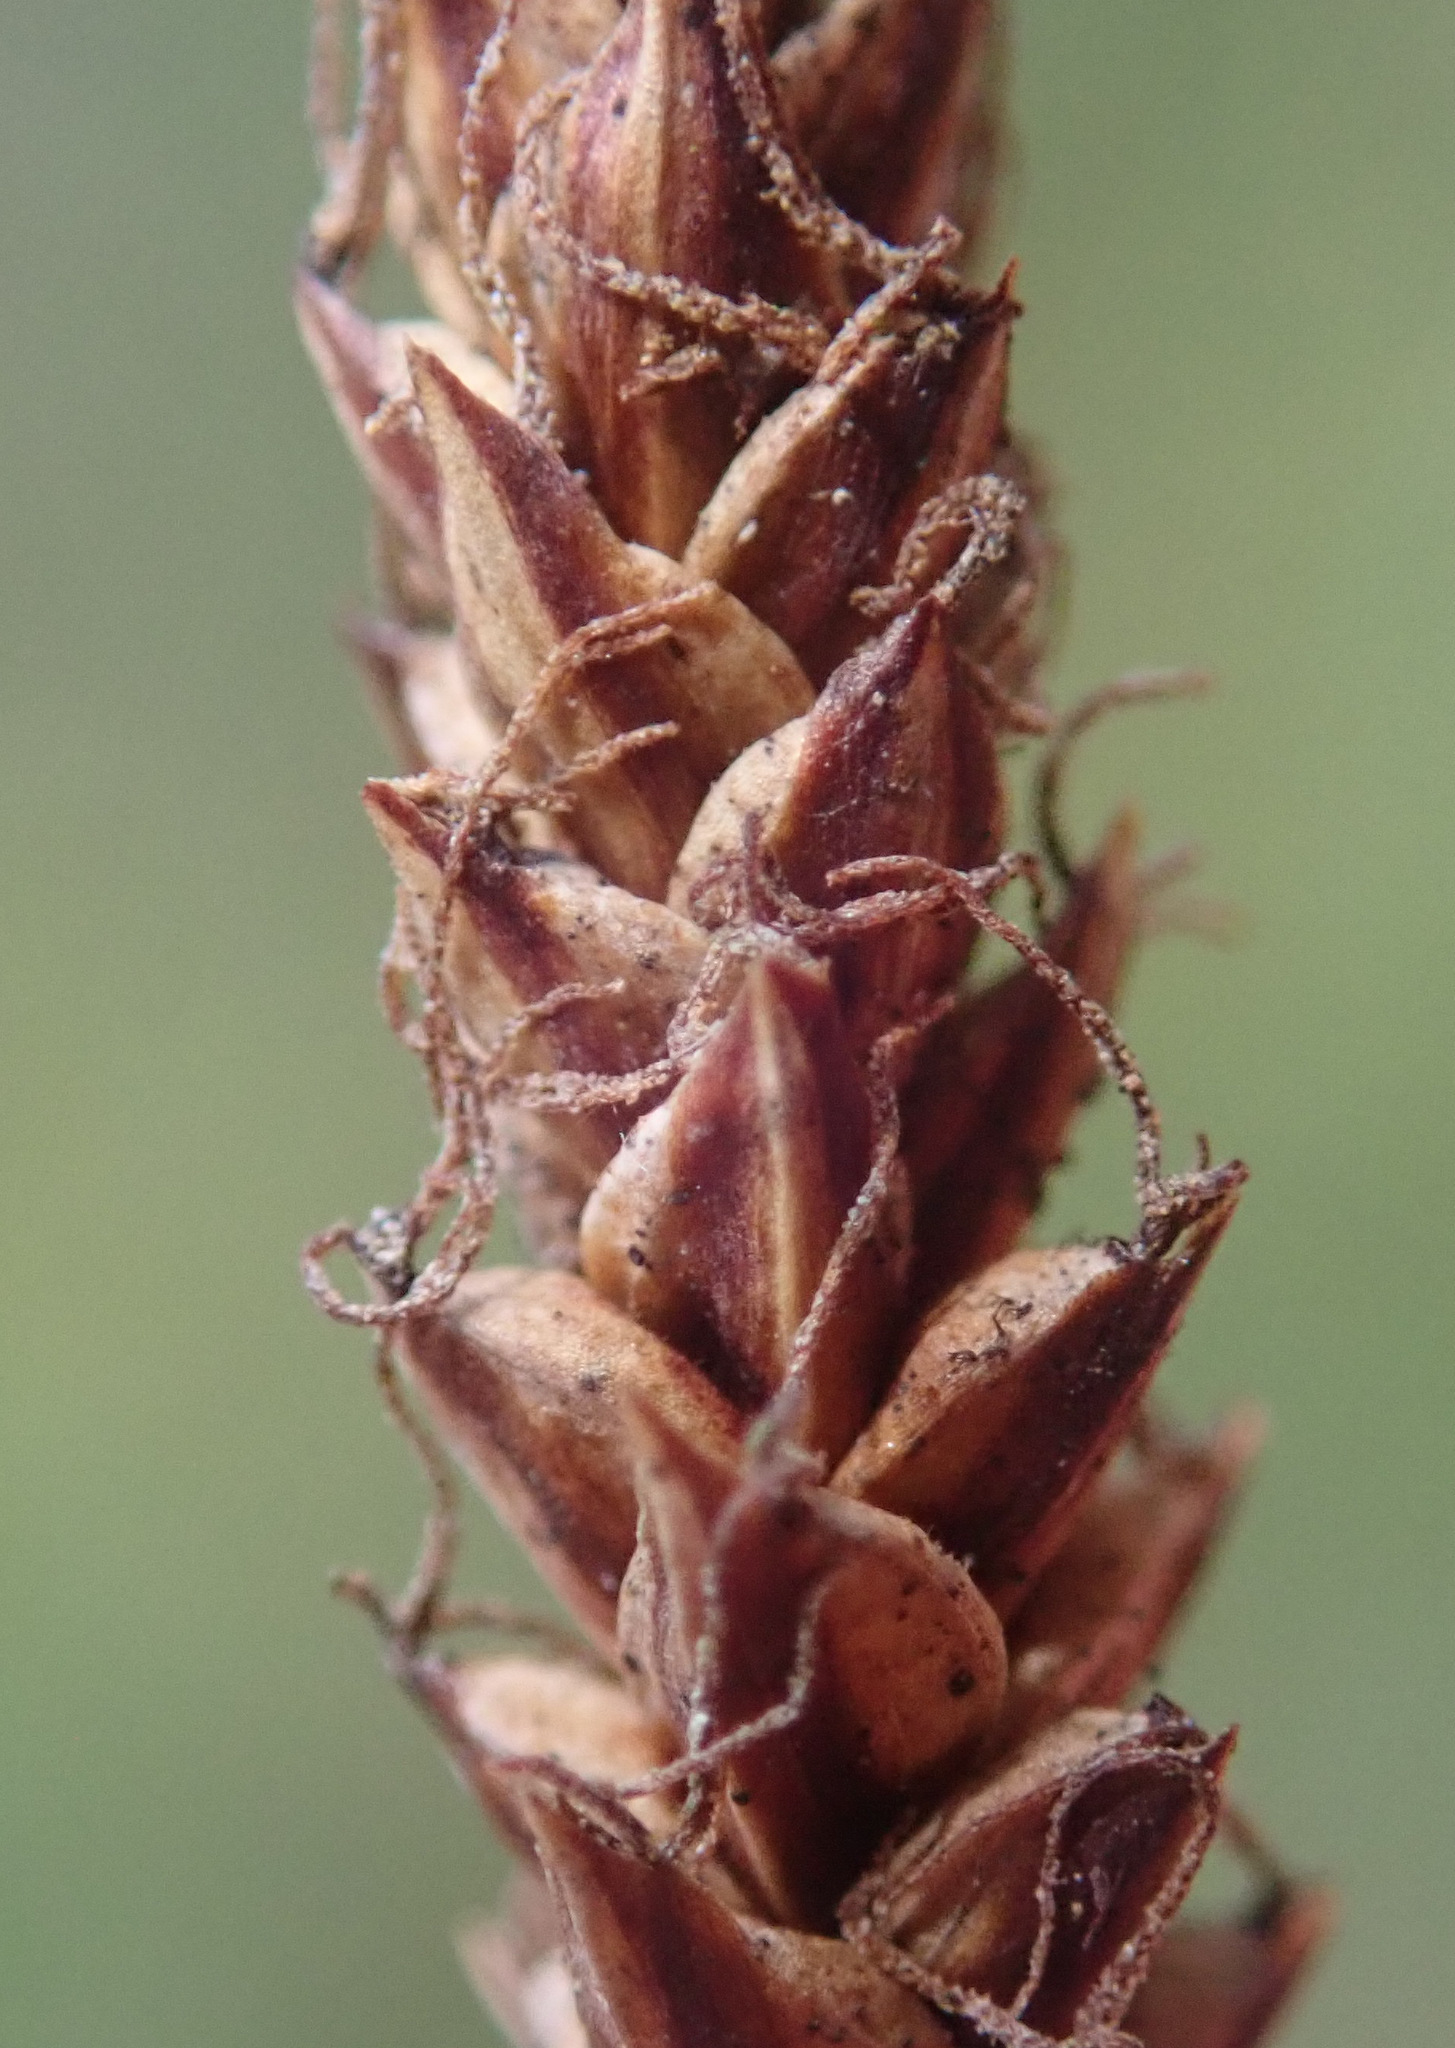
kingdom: Plantae
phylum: Tracheophyta
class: Liliopsida
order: Poales
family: Cyperaceae
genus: Carex
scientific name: Carex flacca
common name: Glaucous sedge
